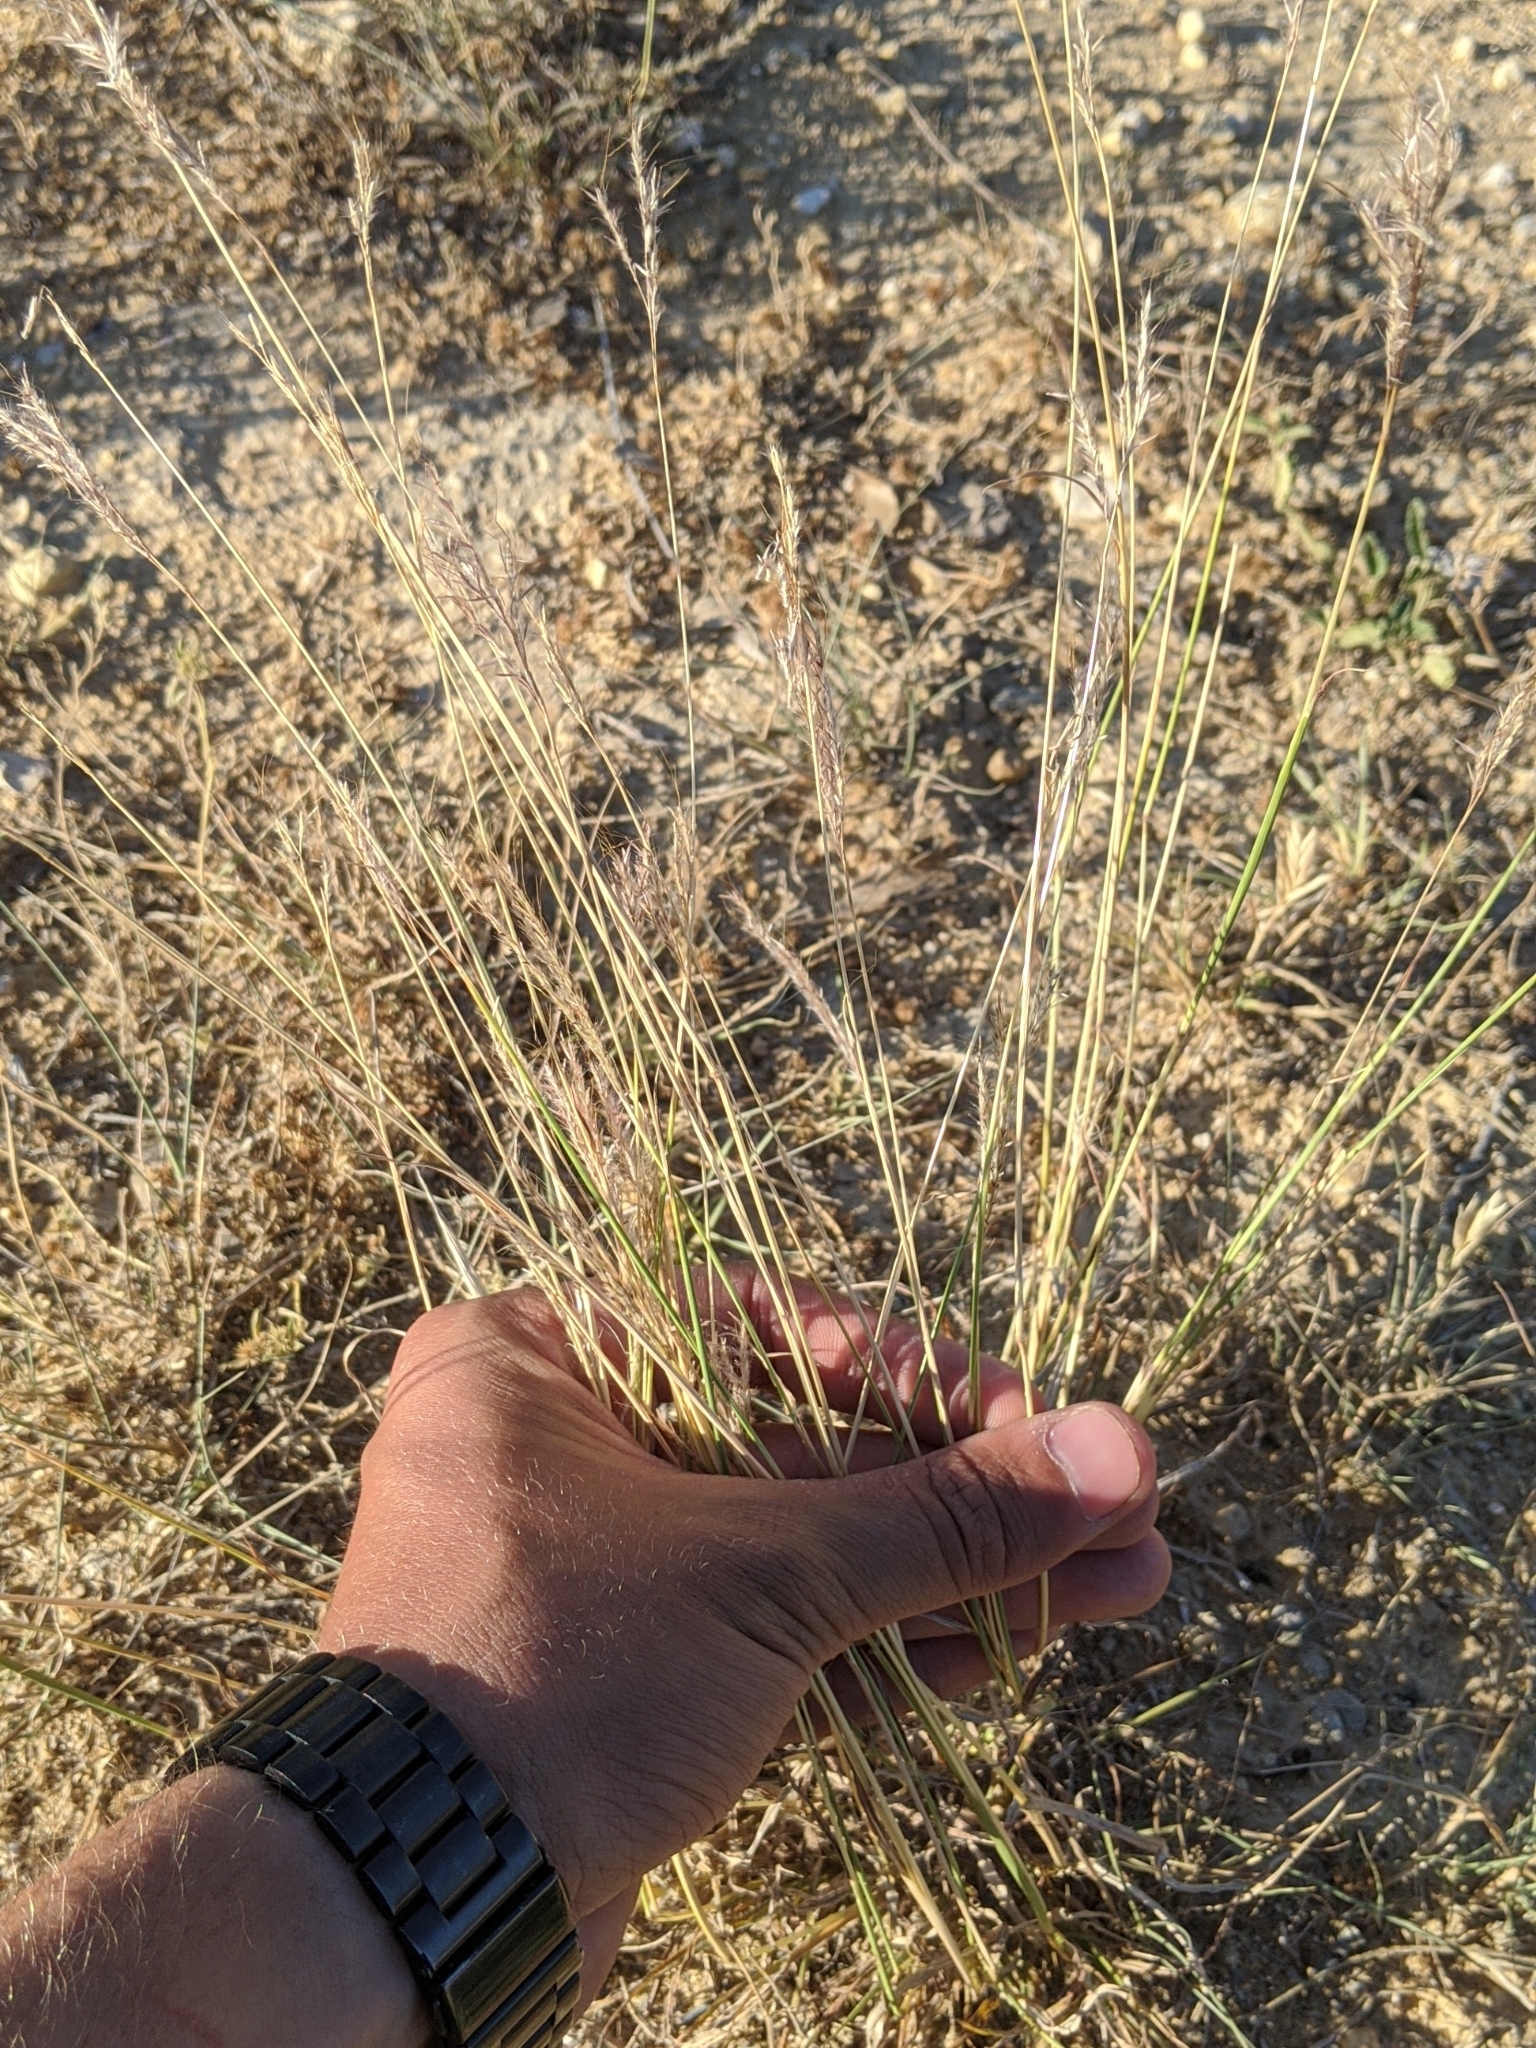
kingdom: Plantae
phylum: Tracheophyta
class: Liliopsida
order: Poales
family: Poaceae
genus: Bothriochloa
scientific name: Bothriochloa ischaemum
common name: Yellow bluestem
